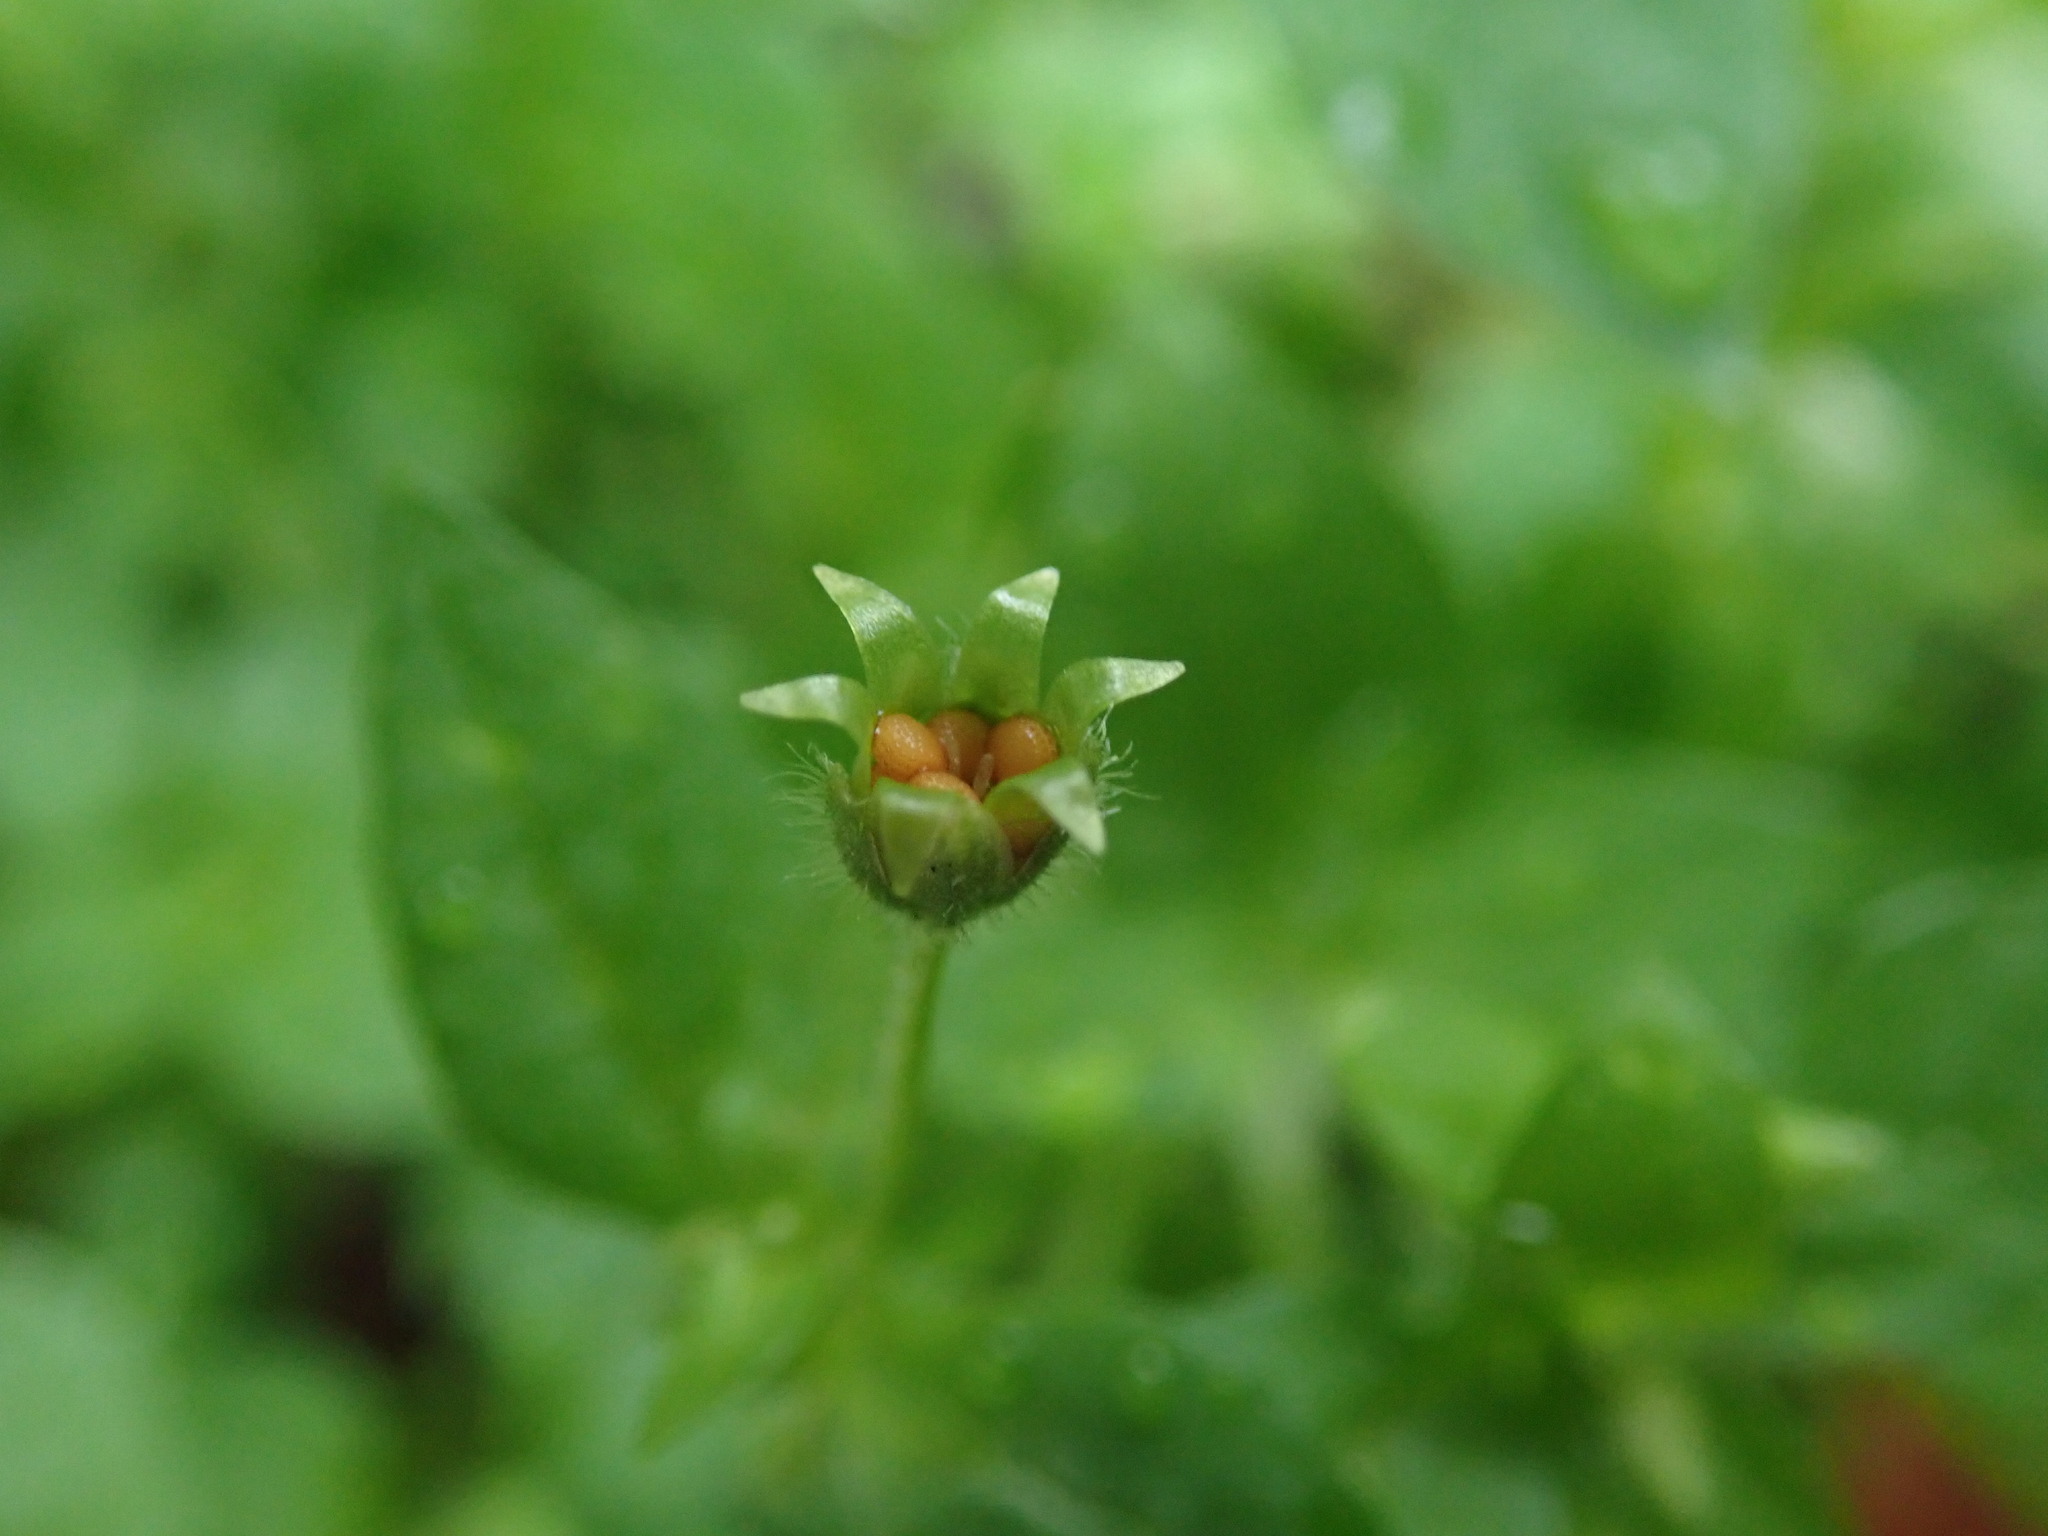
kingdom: Plantae
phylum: Tracheophyta
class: Magnoliopsida
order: Caryophyllales
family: Caryophyllaceae
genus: Stellaria
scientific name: Stellaria media
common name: Common chickweed
